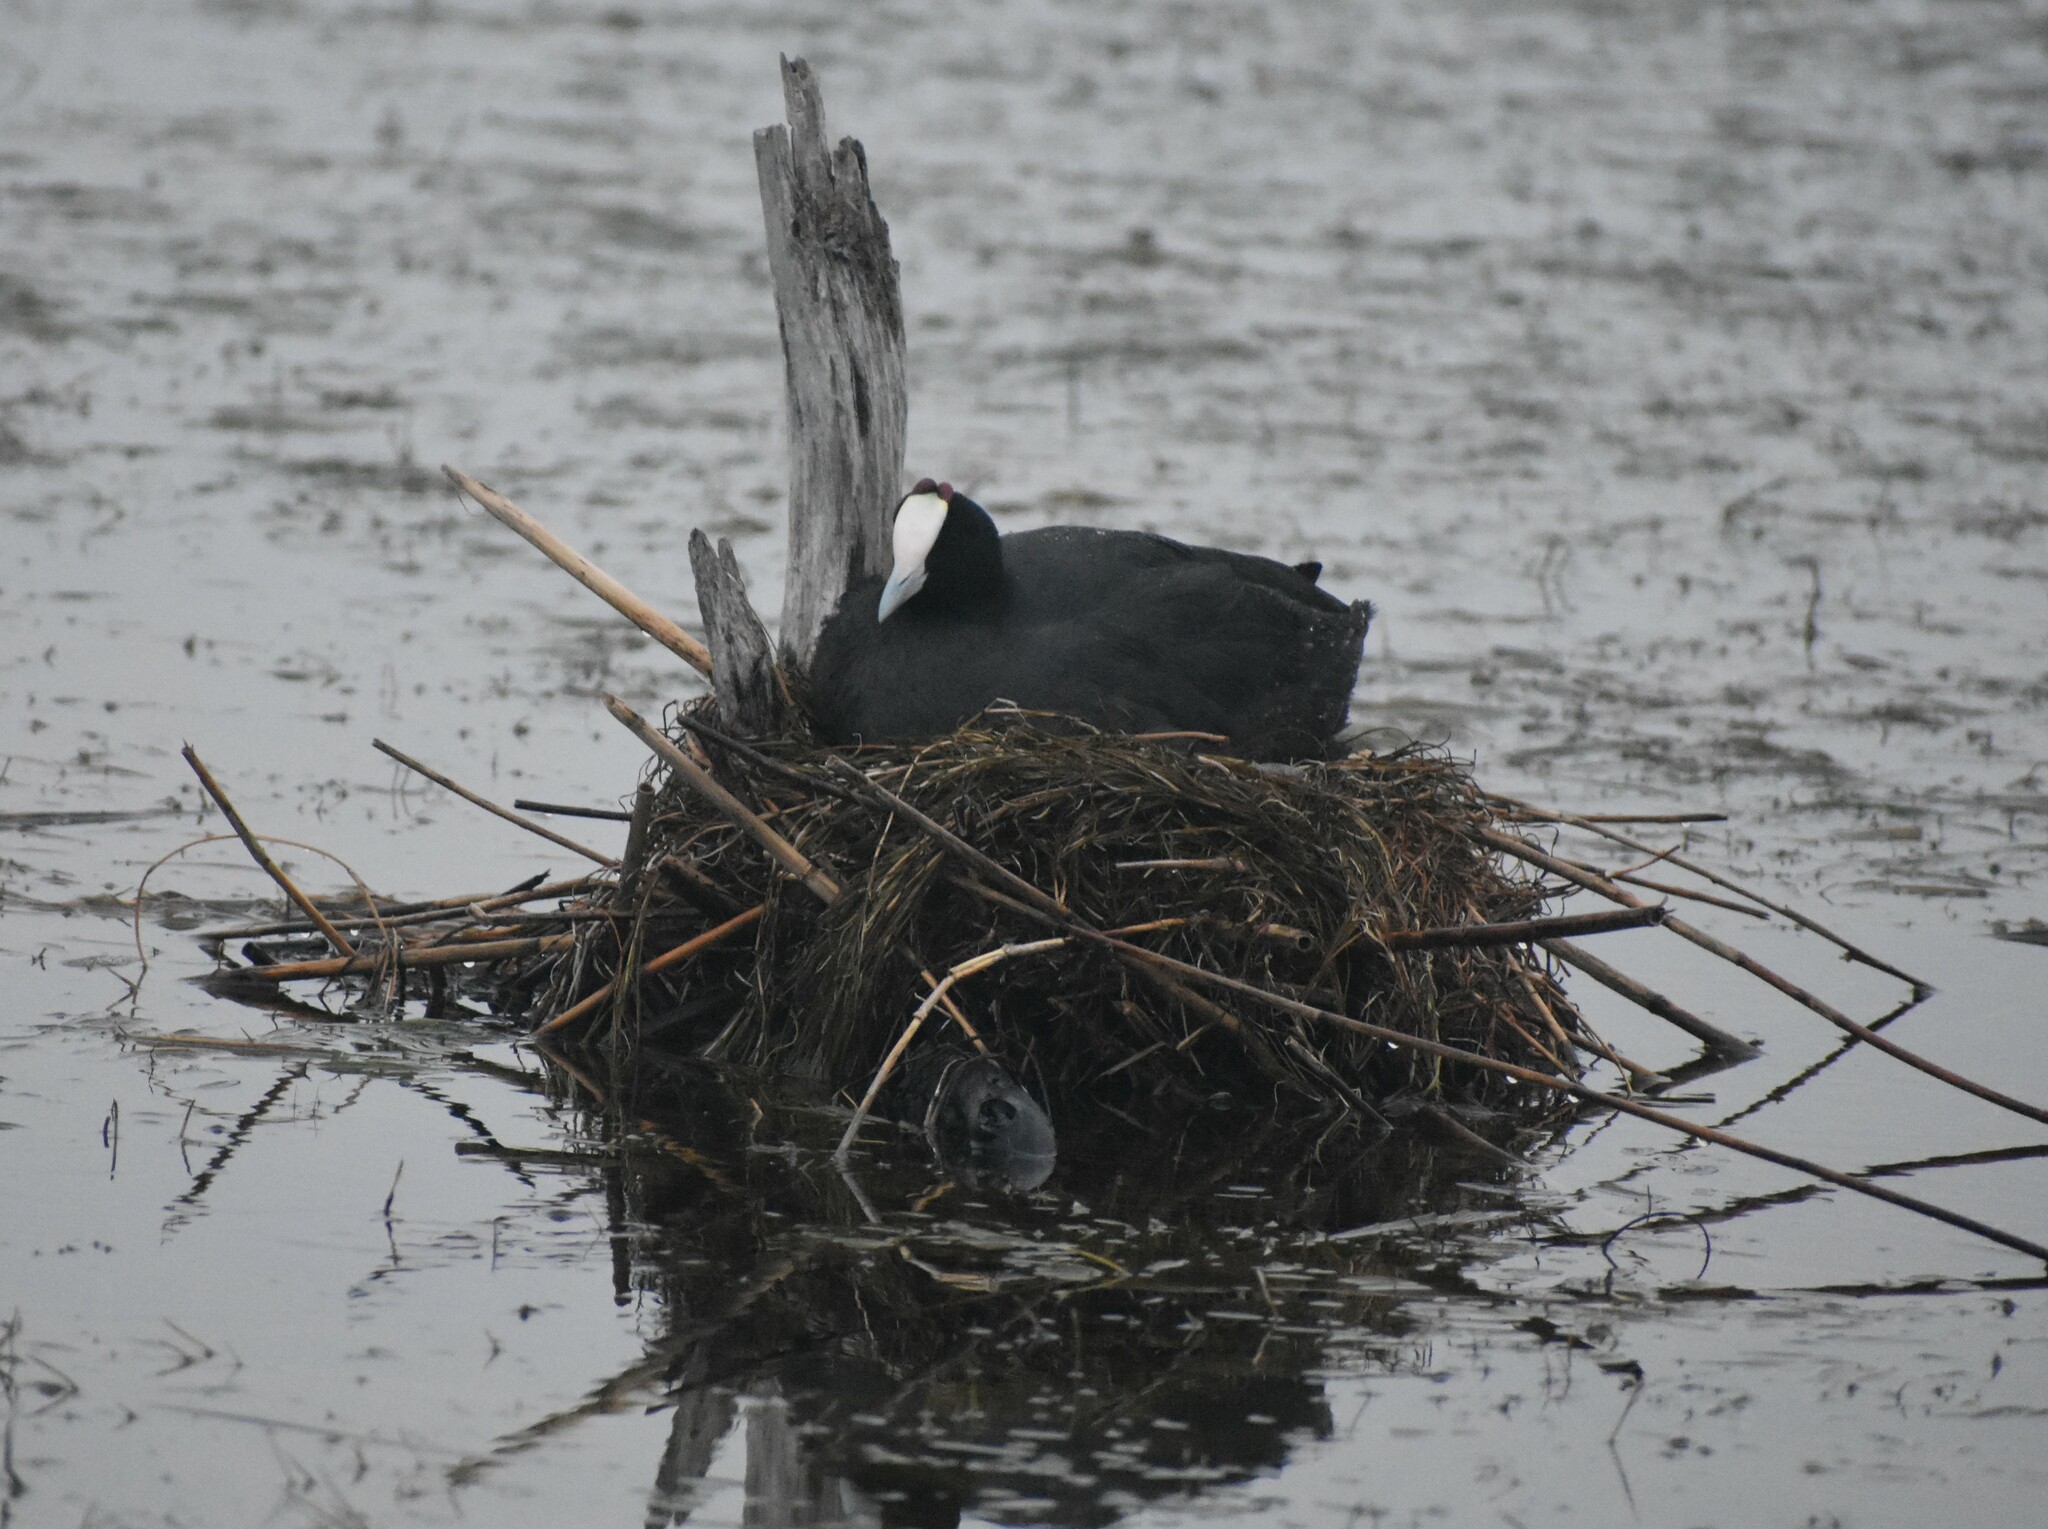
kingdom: Animalia
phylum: Chordata
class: Aves
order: Gruiformes
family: Rallidae
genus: Fulica
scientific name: Fulica cristata
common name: Red-knobbed coot
